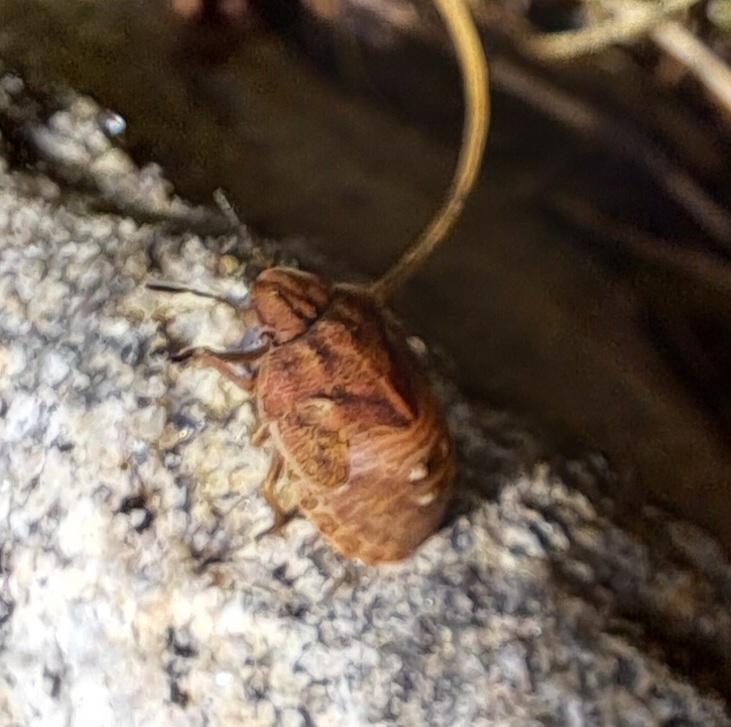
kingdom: Animalia
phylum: Arthropoda
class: Insecta
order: Hemiptera
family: Scutelleridae
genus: Eurygaster
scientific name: Eurygaster testudinaria
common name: Tortoise bug
